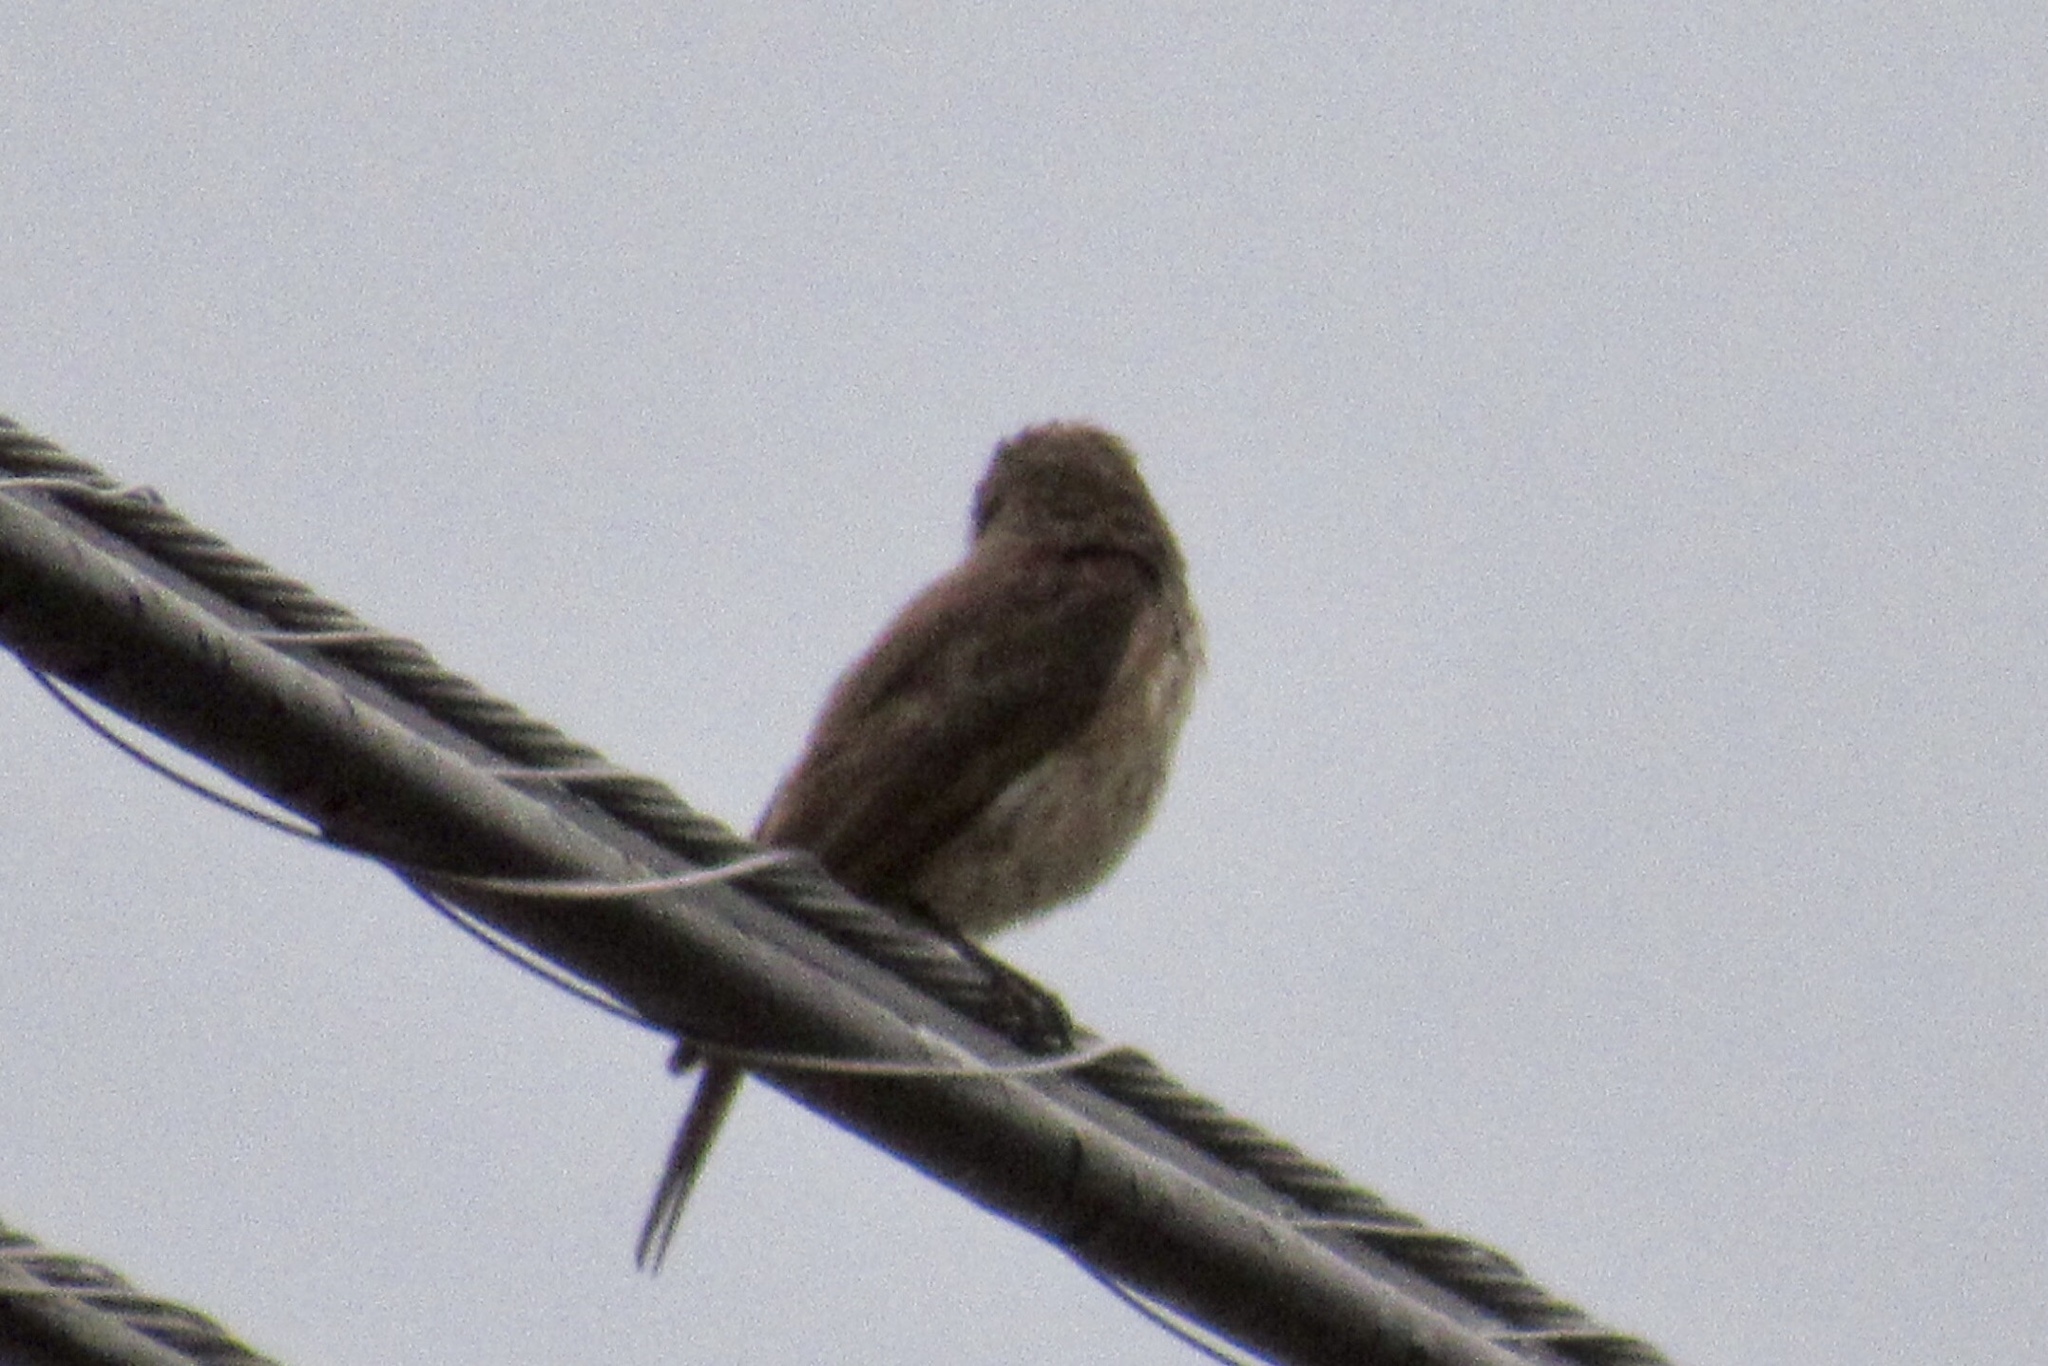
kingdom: Animalia
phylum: Chordata
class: Aves
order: Passeriformes
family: Tyrannidae
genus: Pyrocephalus
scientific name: Pyrocephalus rubinus
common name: Vermilion flycatcher
